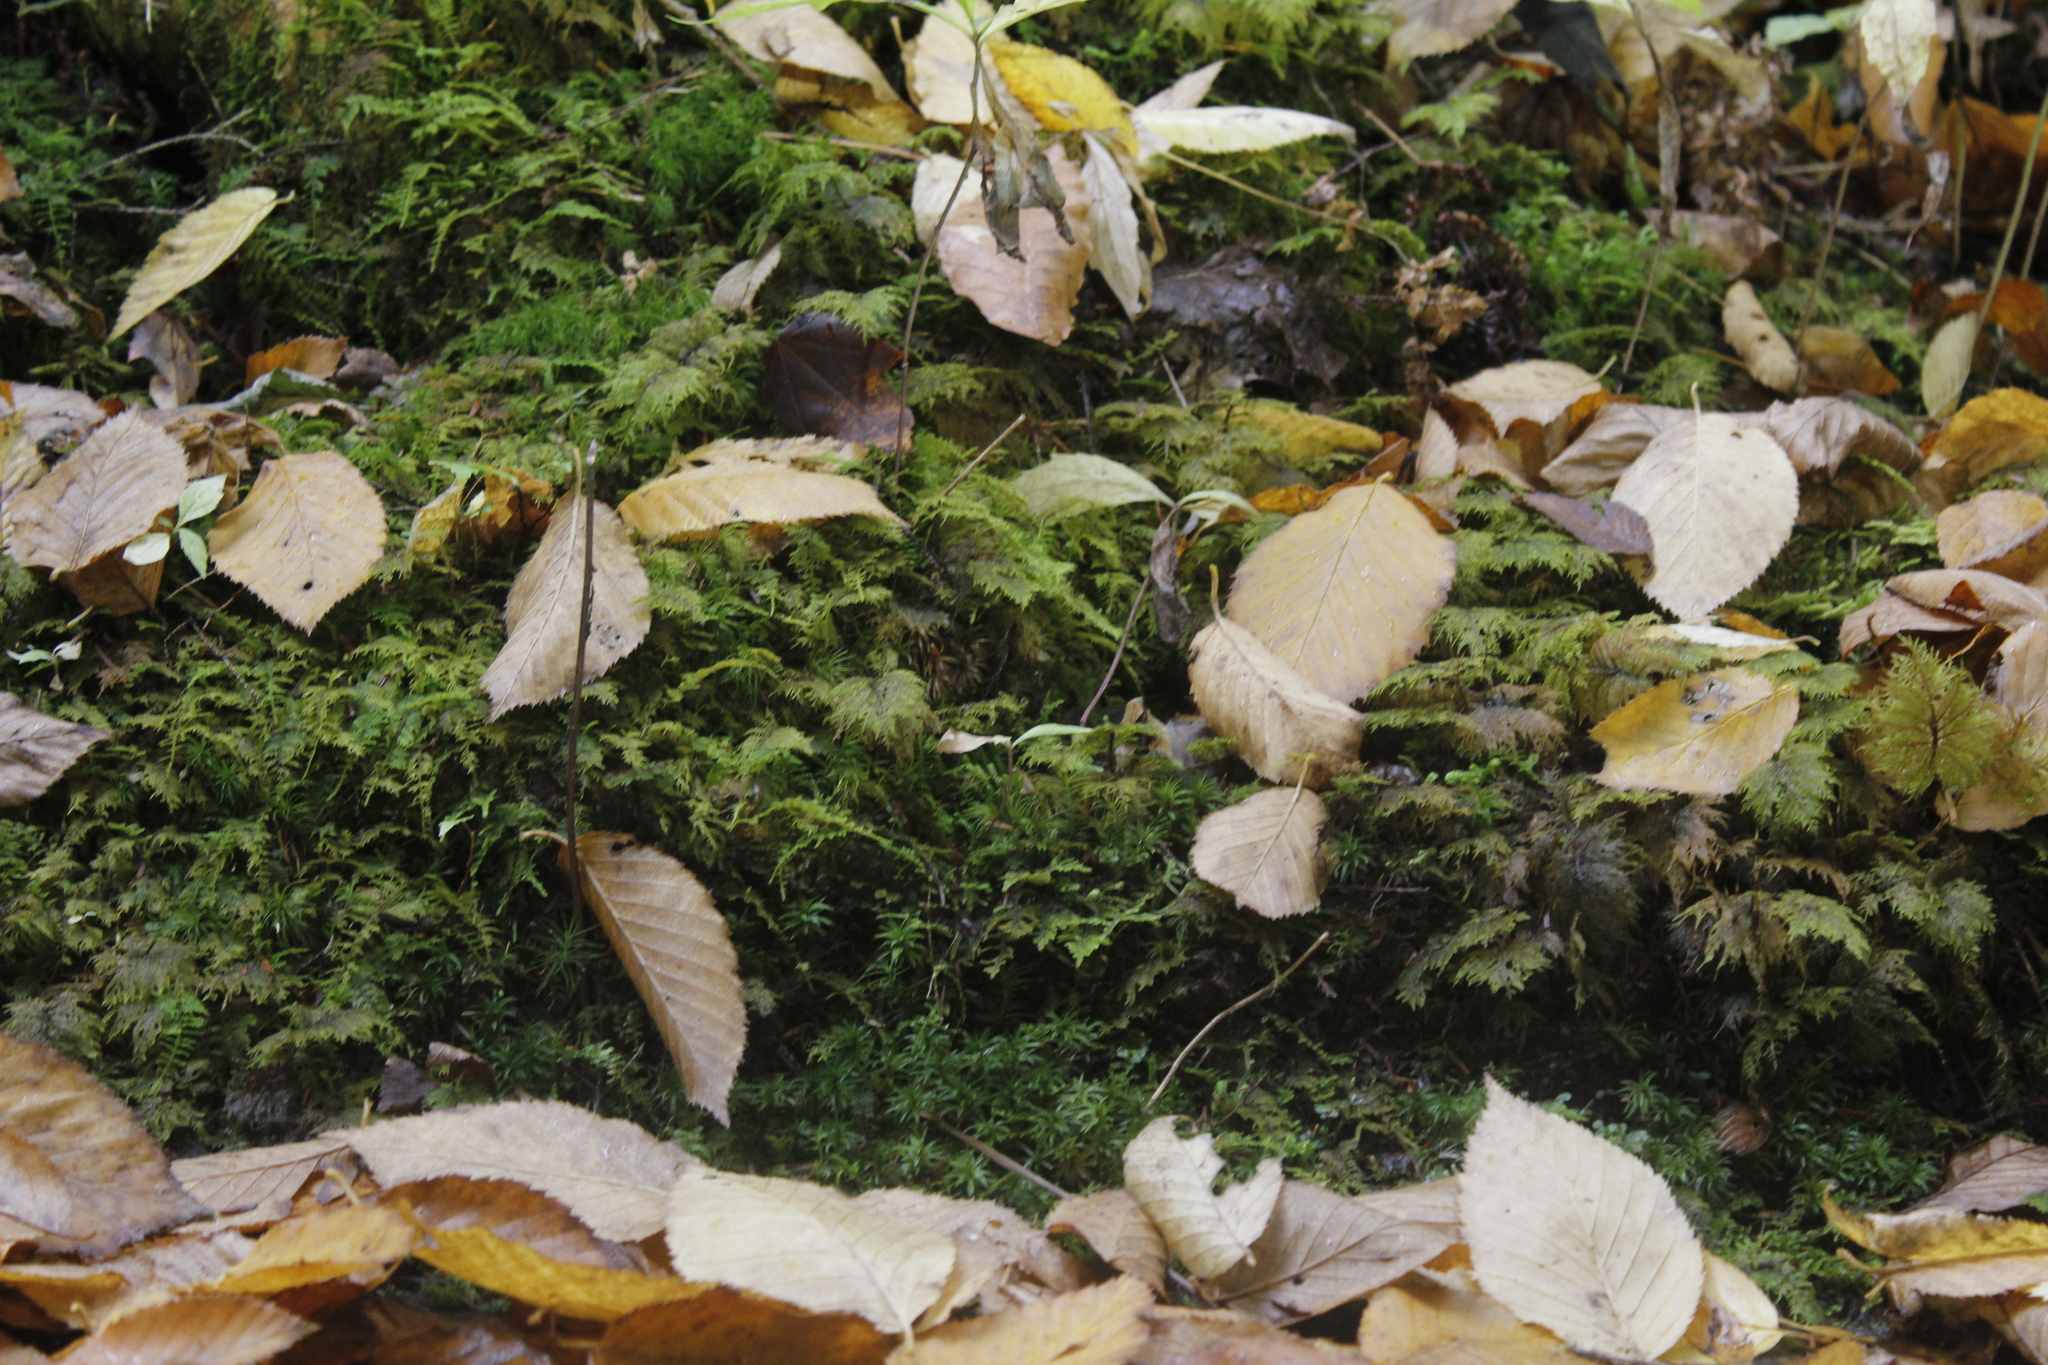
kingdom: Plantae
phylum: Bryophyta
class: Bryopsida
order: Hypnales
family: Hylocomiaceae
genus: Hylocomium
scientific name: Hylocomium splendens
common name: Stairstep moss
